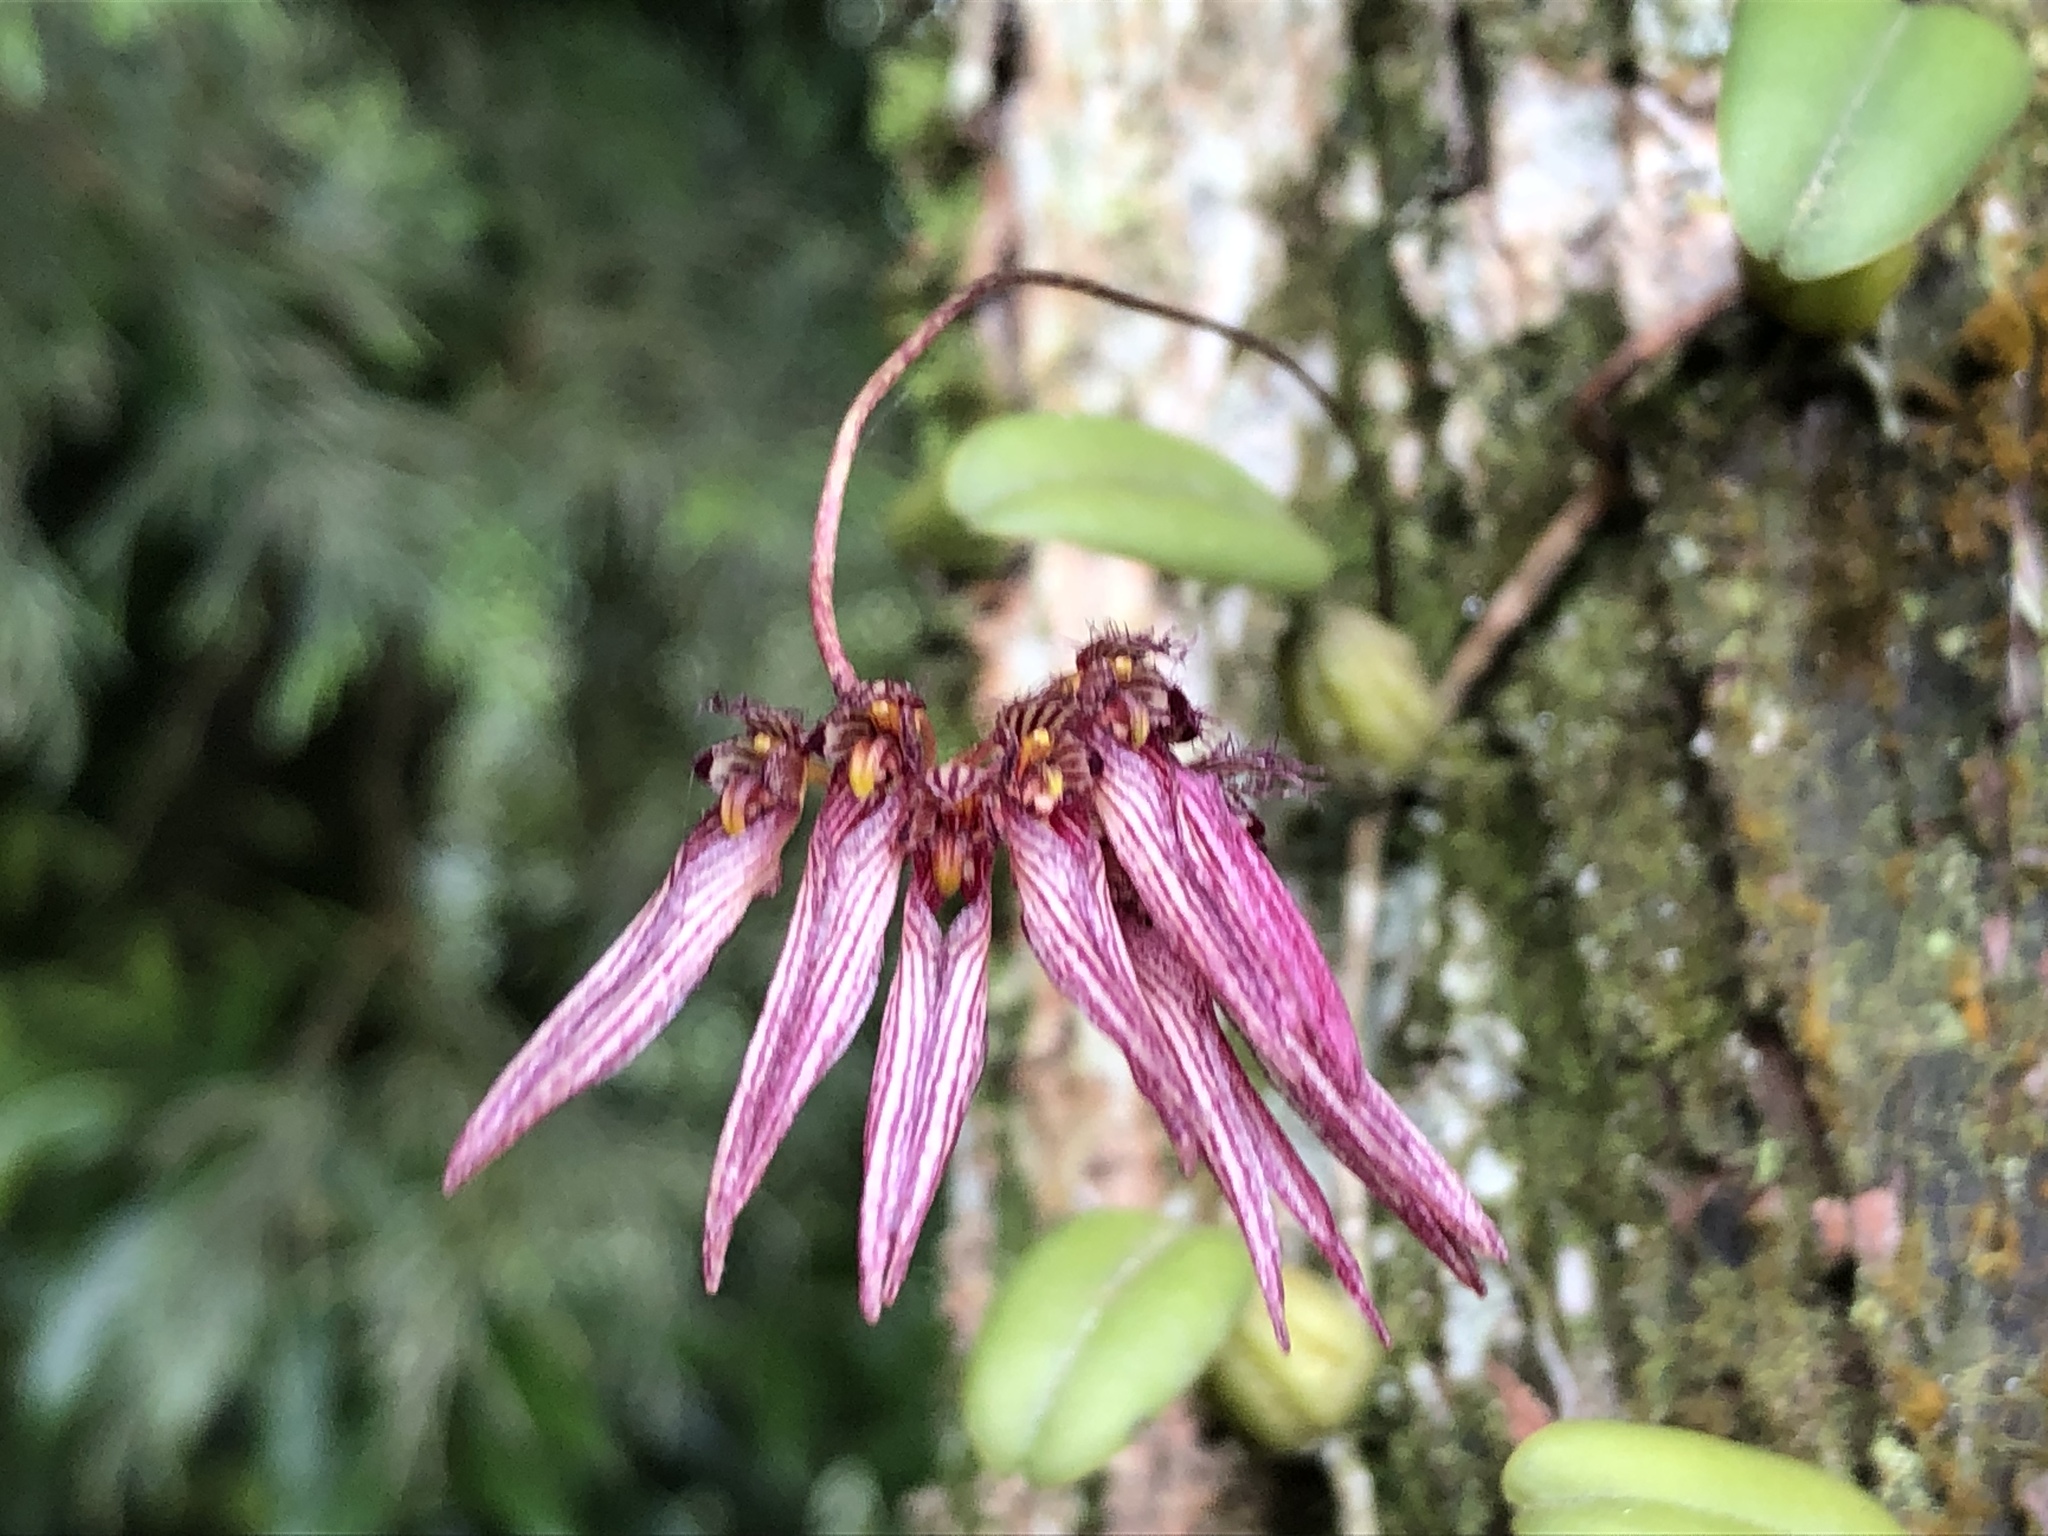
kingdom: Plantae
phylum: Tracheophyta
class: Liliopsida
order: Asparagales
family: Orchidaceae
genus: Bulbophyllum
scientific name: Bulbophyllum melanoglossum
